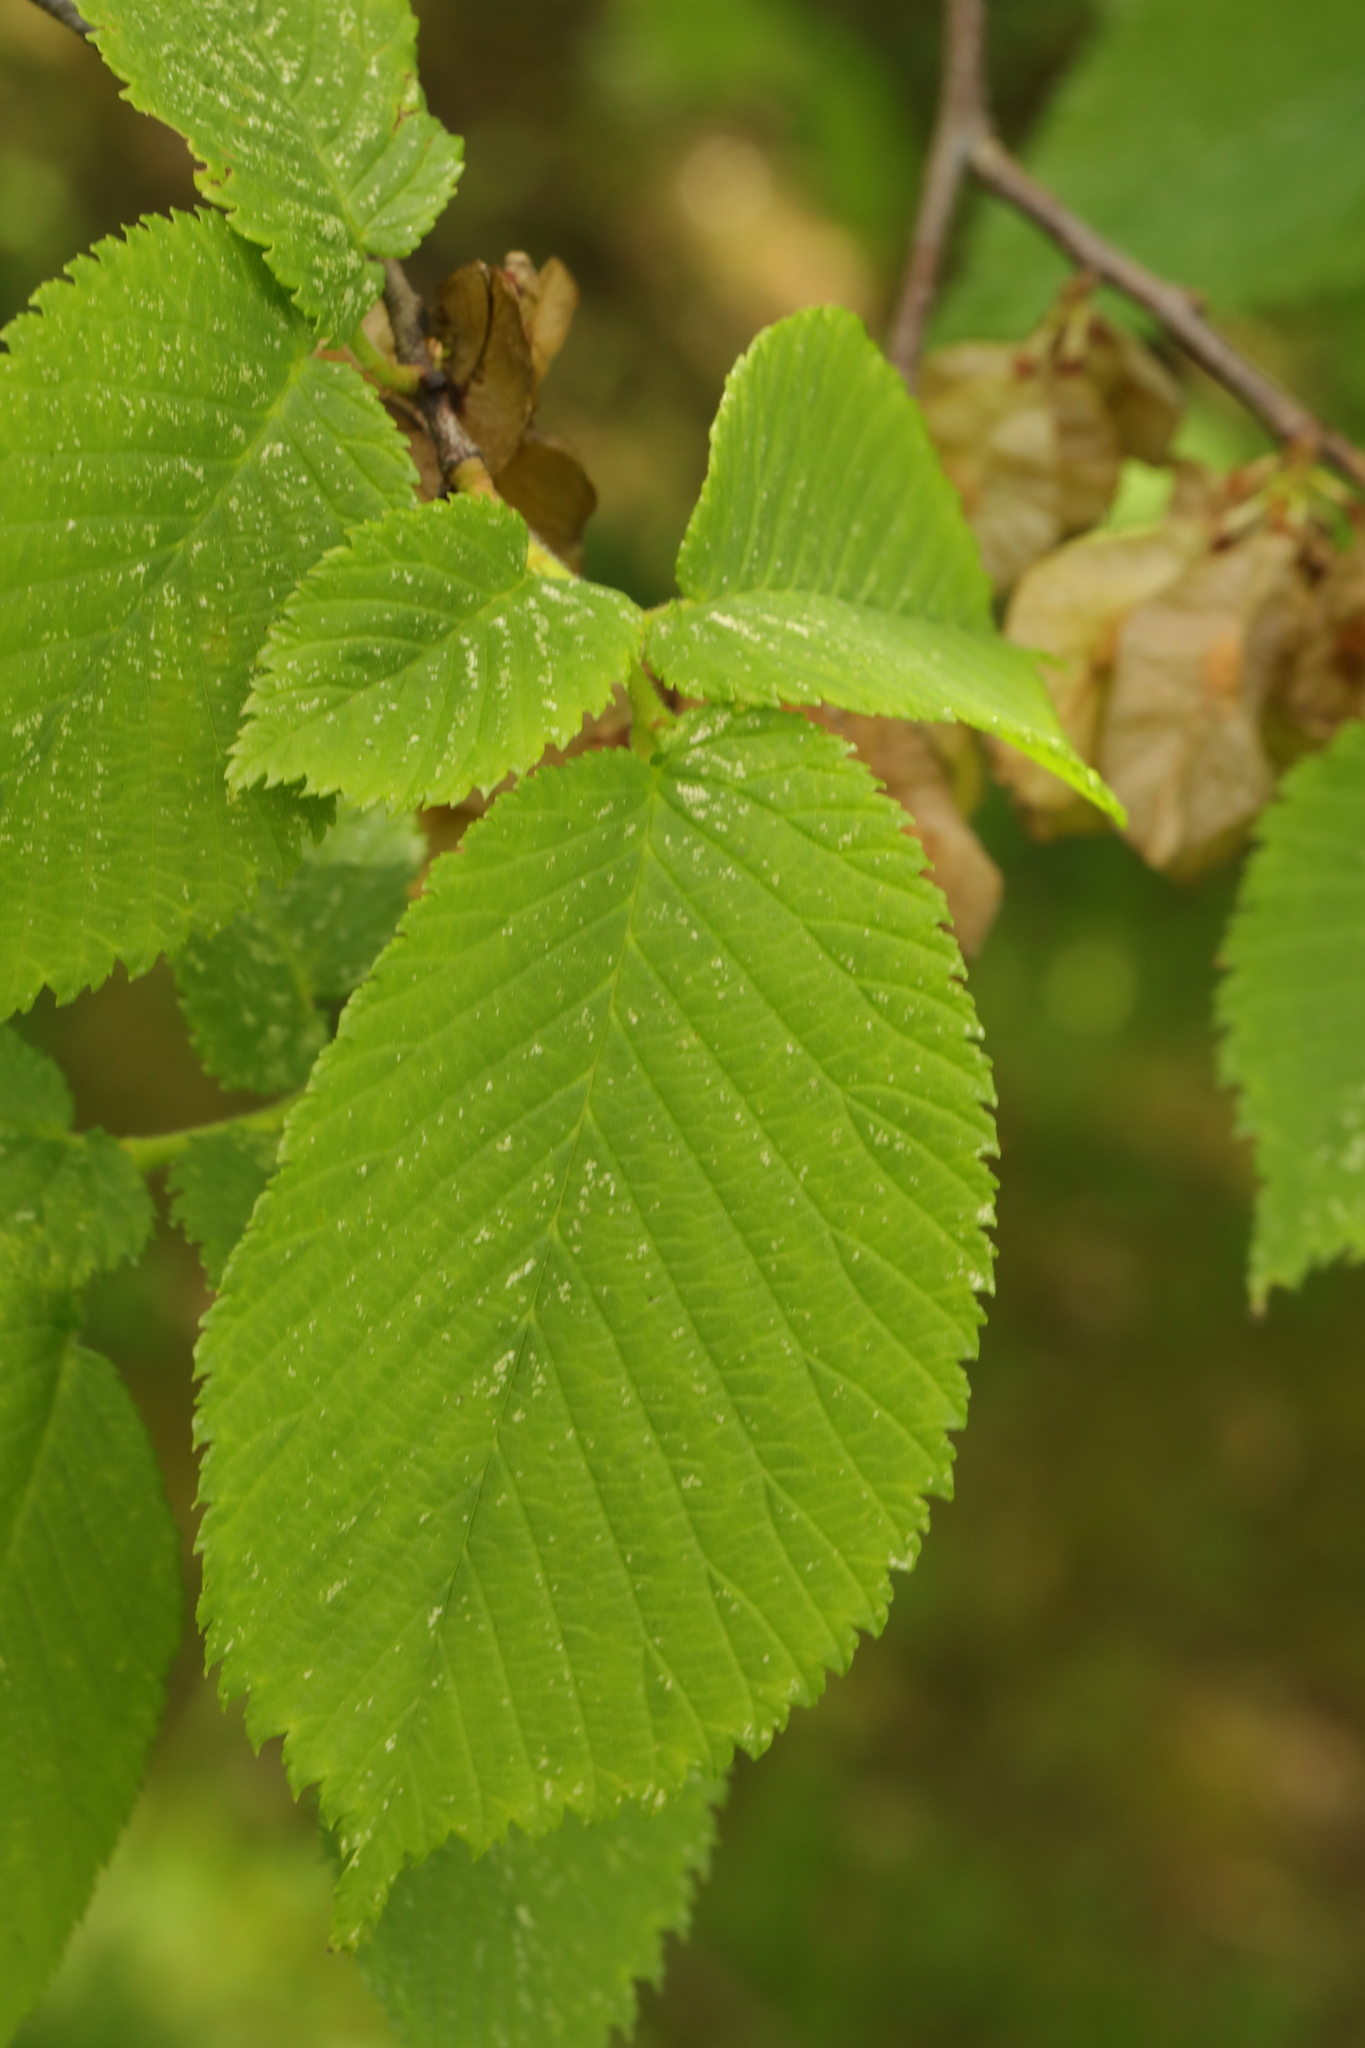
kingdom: Plantae
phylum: Tracheophyta
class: Magnoliopsida
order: Rosales
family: Ulmaceae
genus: Ulmus
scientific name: Ulmus glabra
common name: Wych elm
